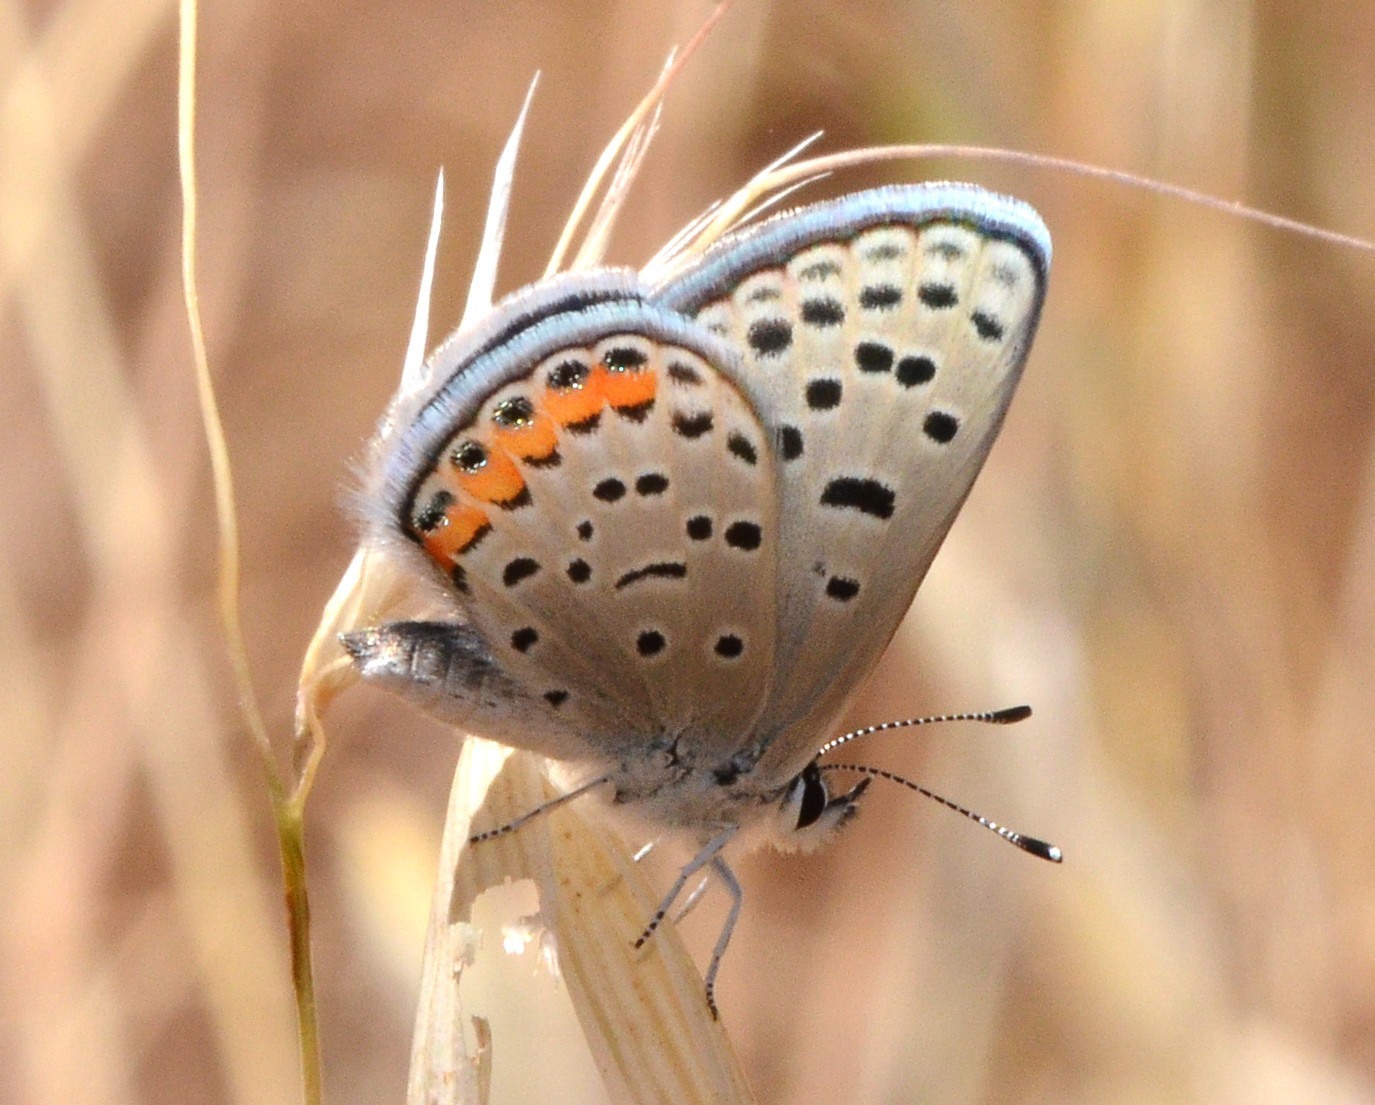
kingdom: Animalia
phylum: Arthropoda
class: Insecta
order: Lepidoptera
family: Lycaenidae
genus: Icaricia
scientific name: Icaricia acmon
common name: Acmon blue
